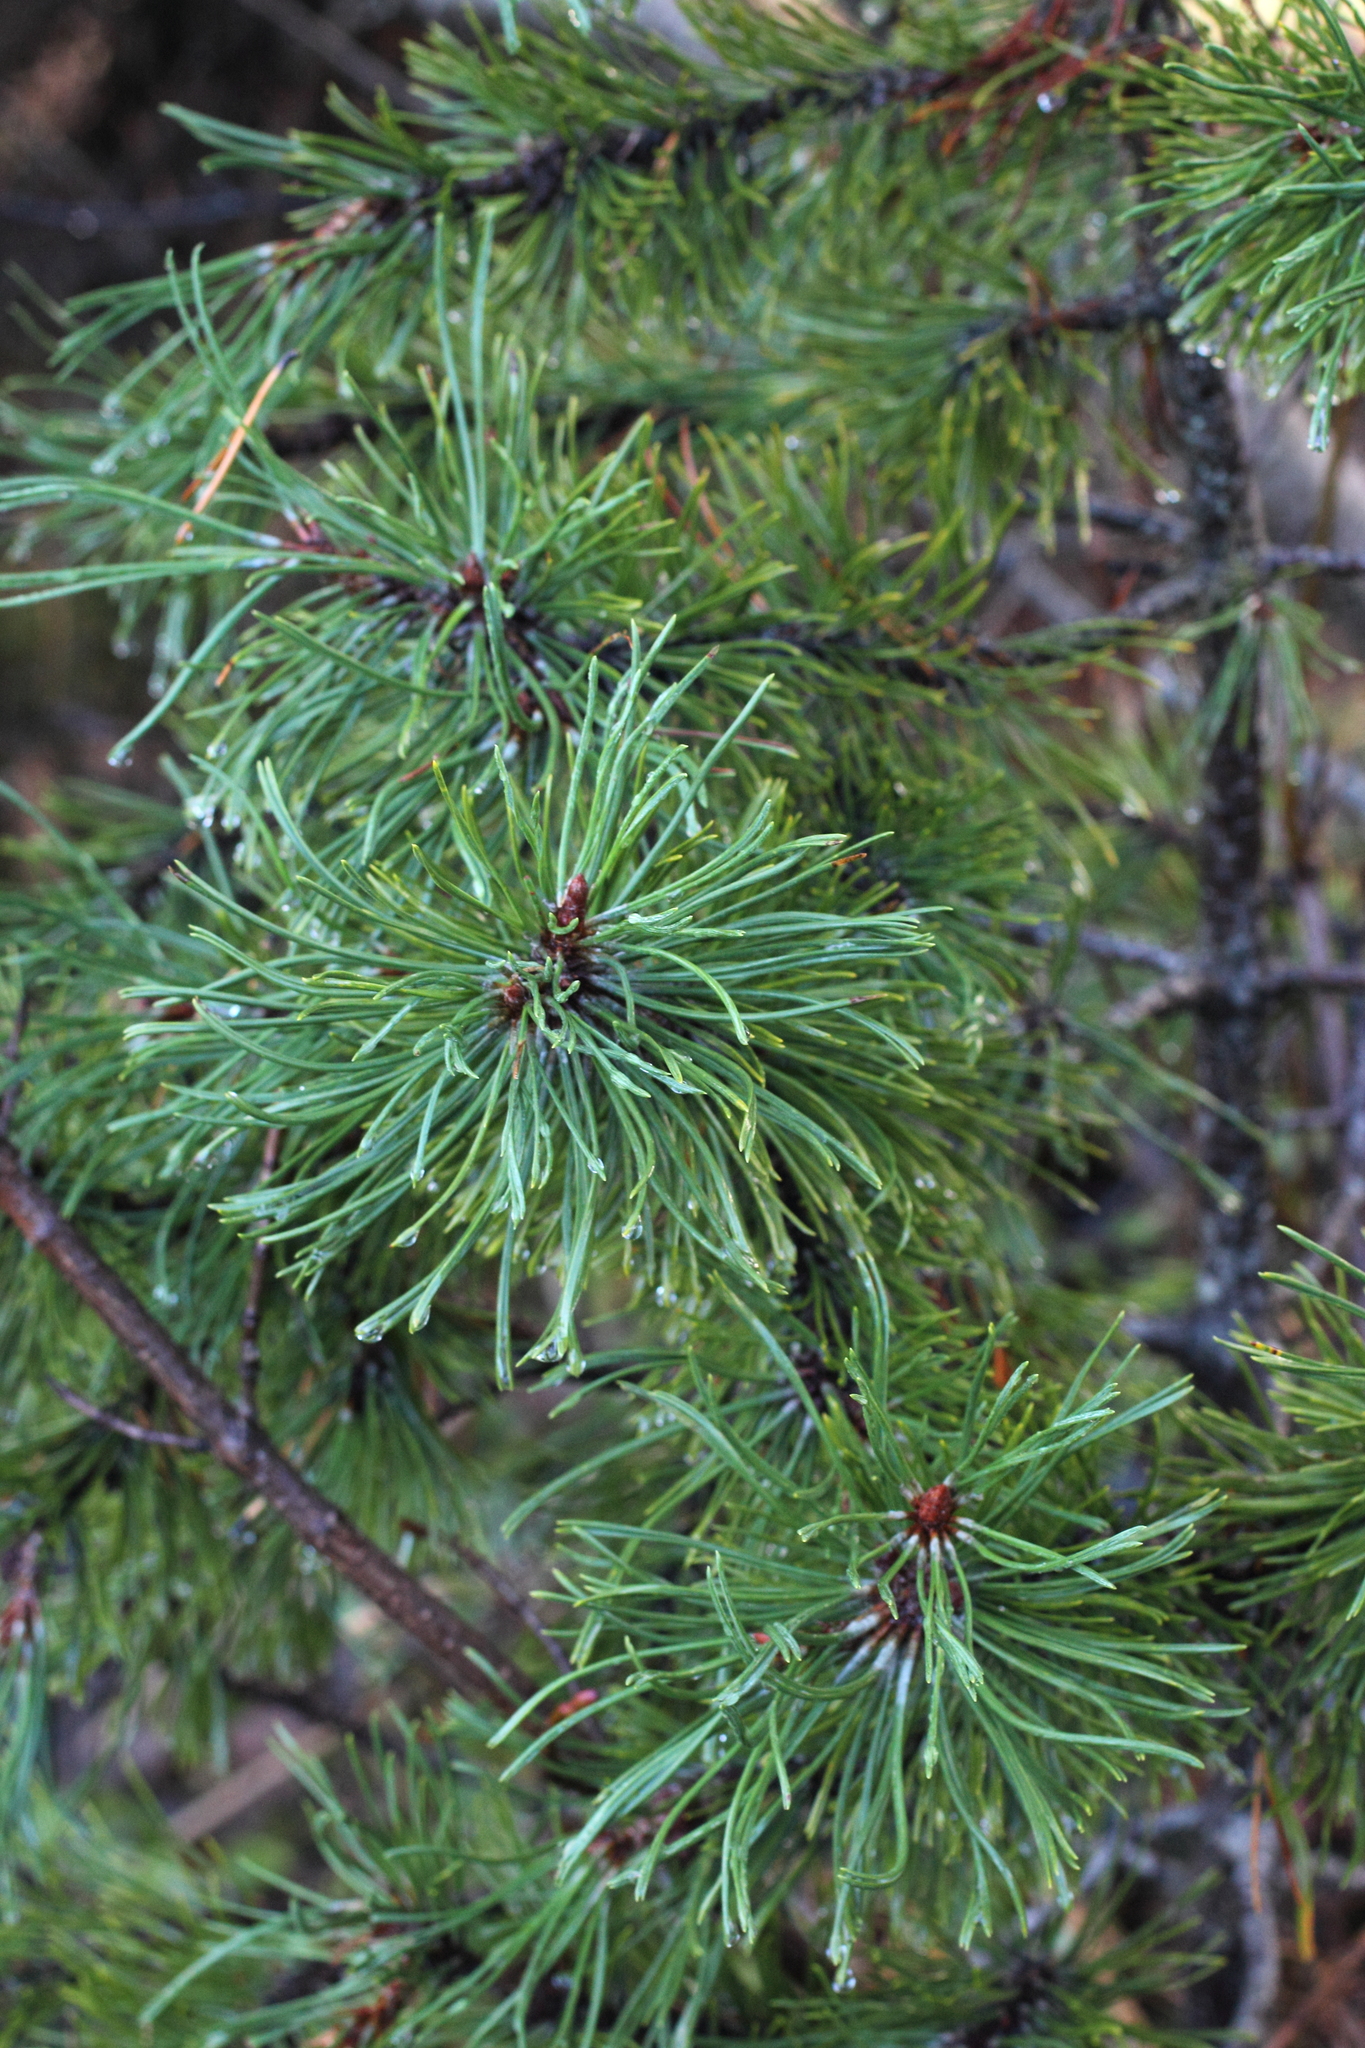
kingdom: Plantae
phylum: Tracheophyta
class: Pinopsida
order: Pinales
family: Pinaceae
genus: Pinus
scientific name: Pinus contorta
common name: Lodgepole pine
